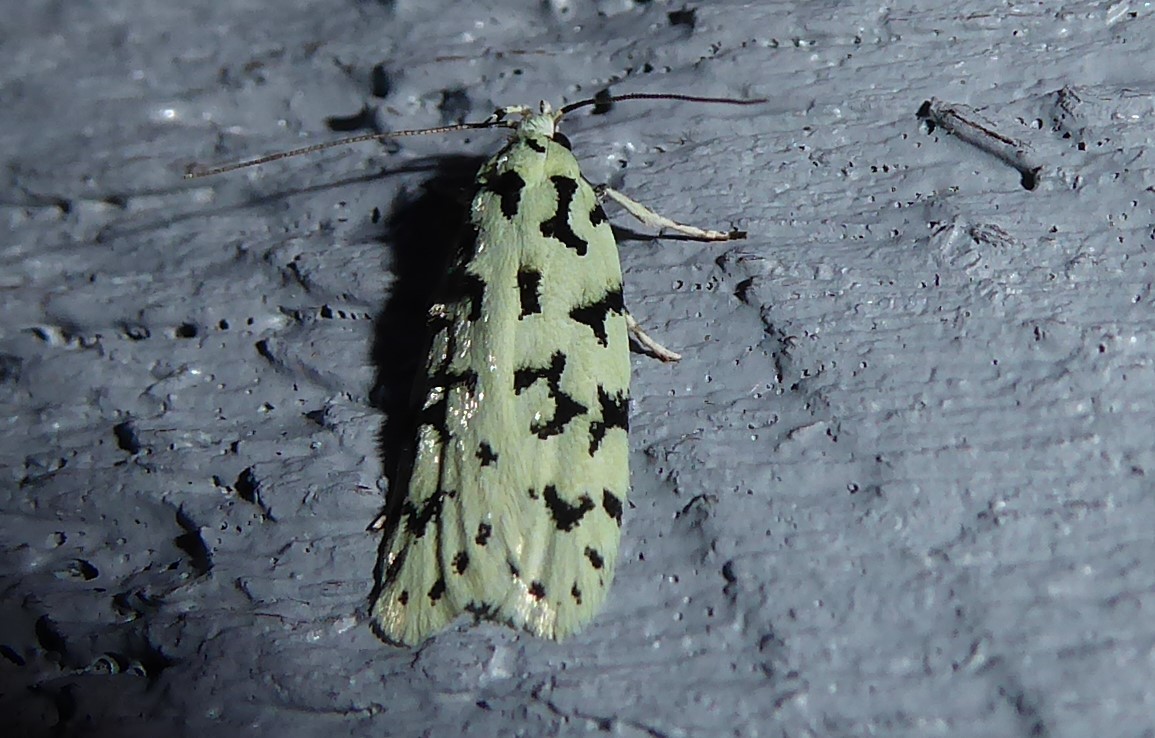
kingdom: Animalia
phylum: Arthropoda
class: Insecta
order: Lepidoptera
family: Oecophoridae
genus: Izatha
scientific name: Izatha huttoni
